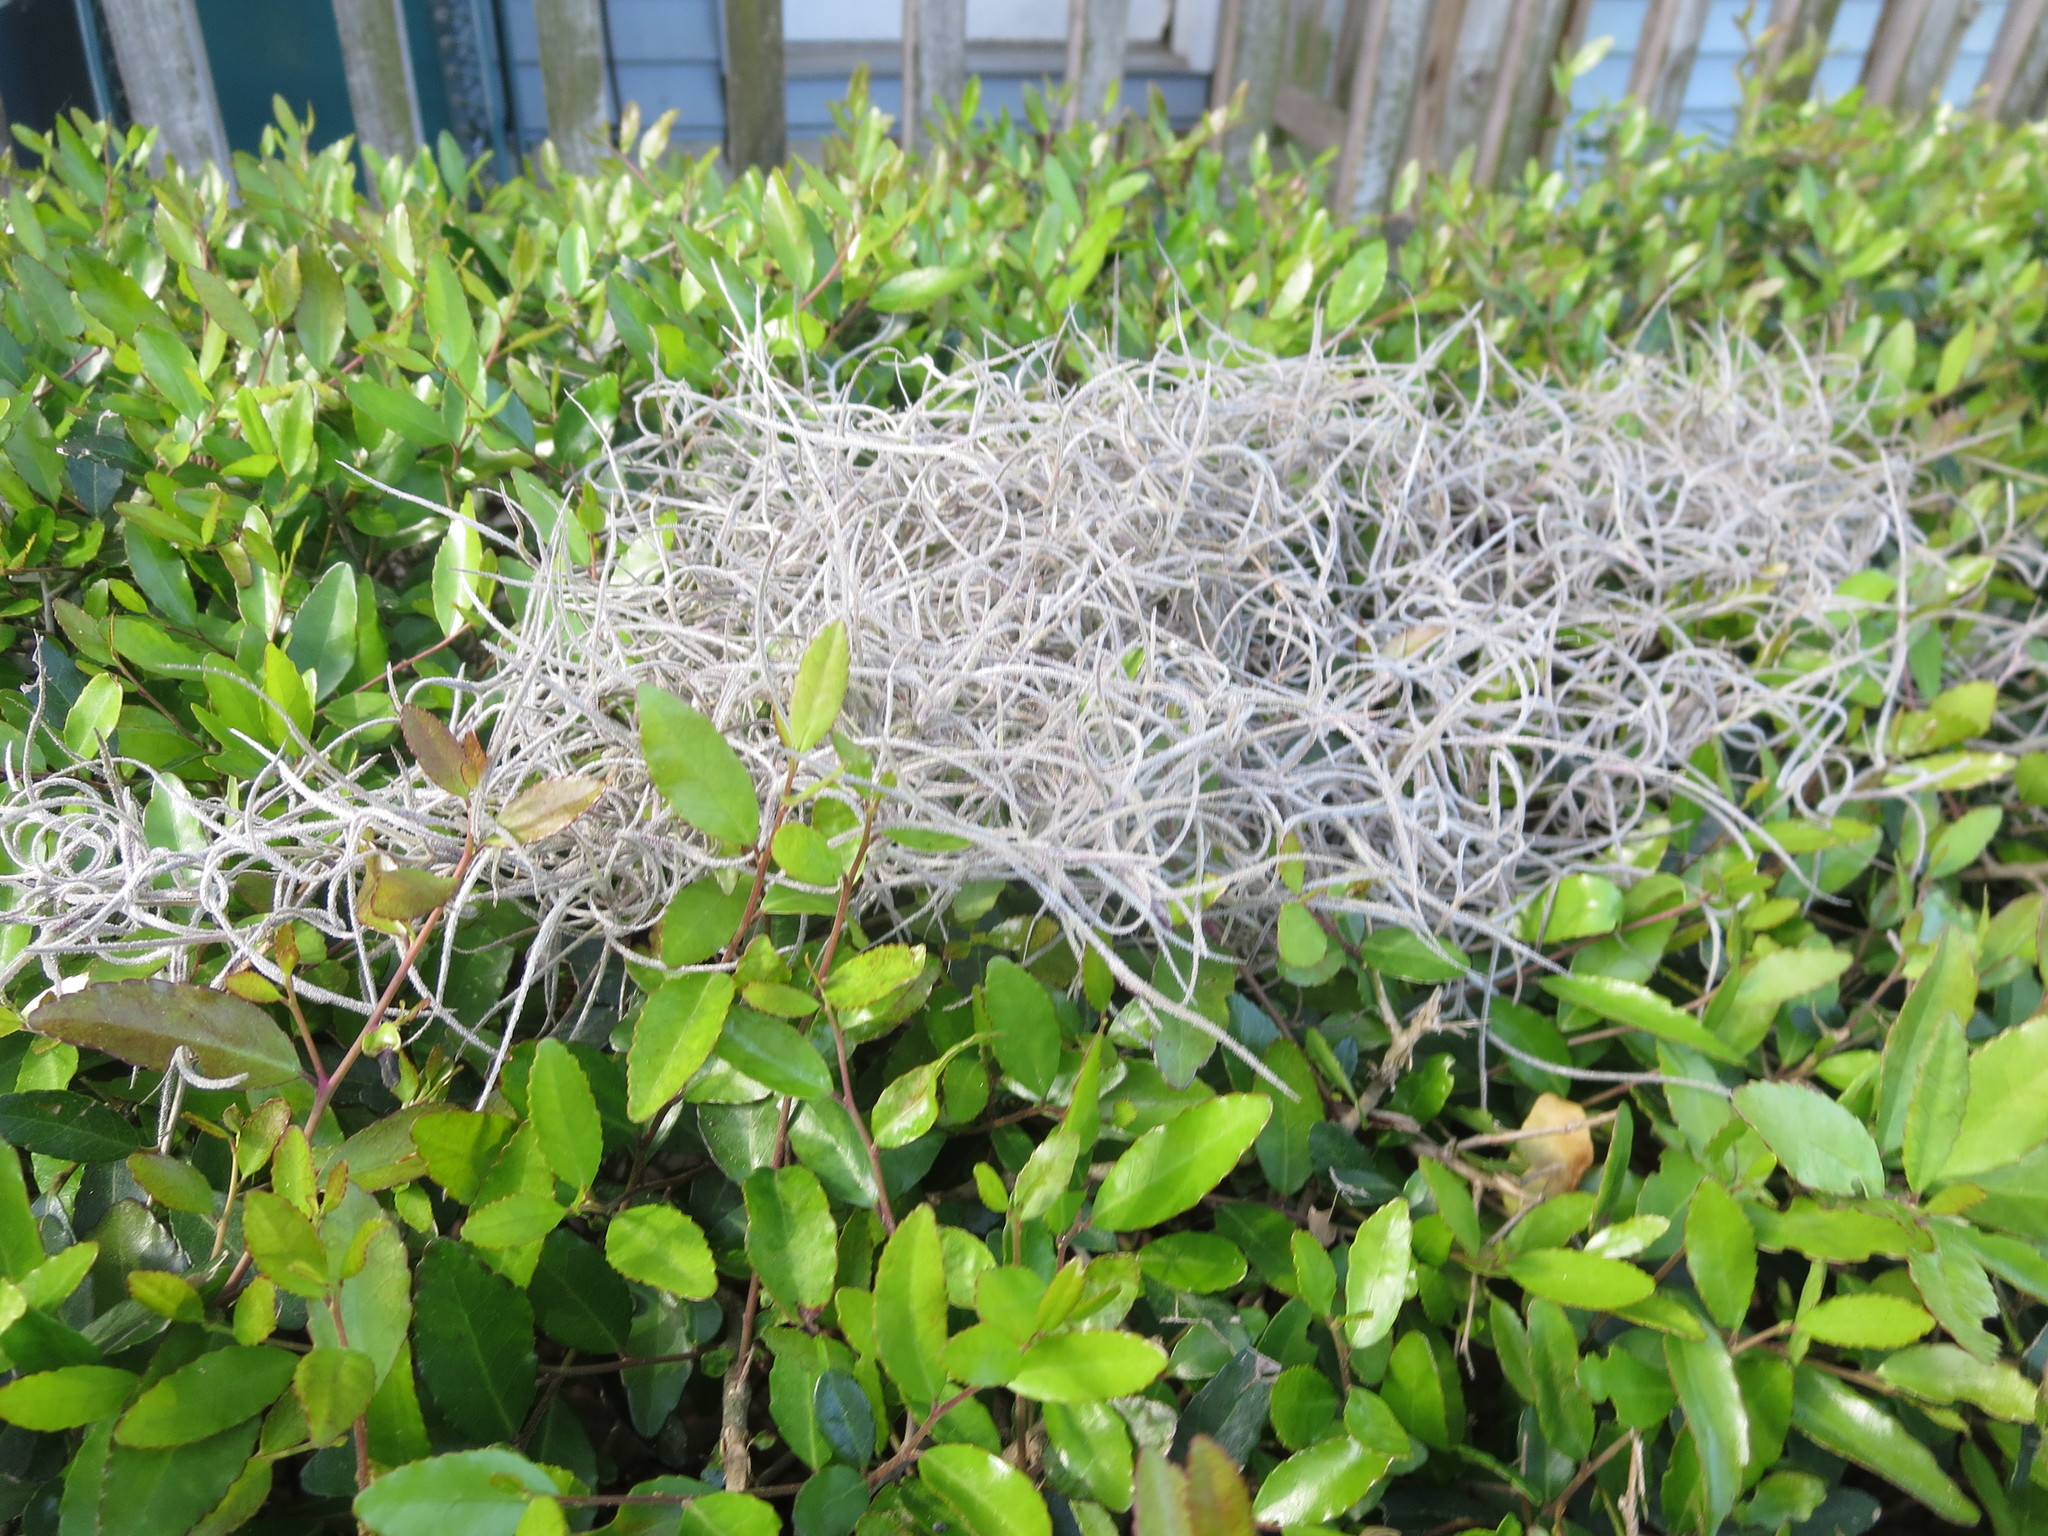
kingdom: Plantae
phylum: Tracheophyta
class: Liliopsida
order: Poales
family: Bromeliaceae
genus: Tillandsia
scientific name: Tillandsia usneoides
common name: Spanish moss
